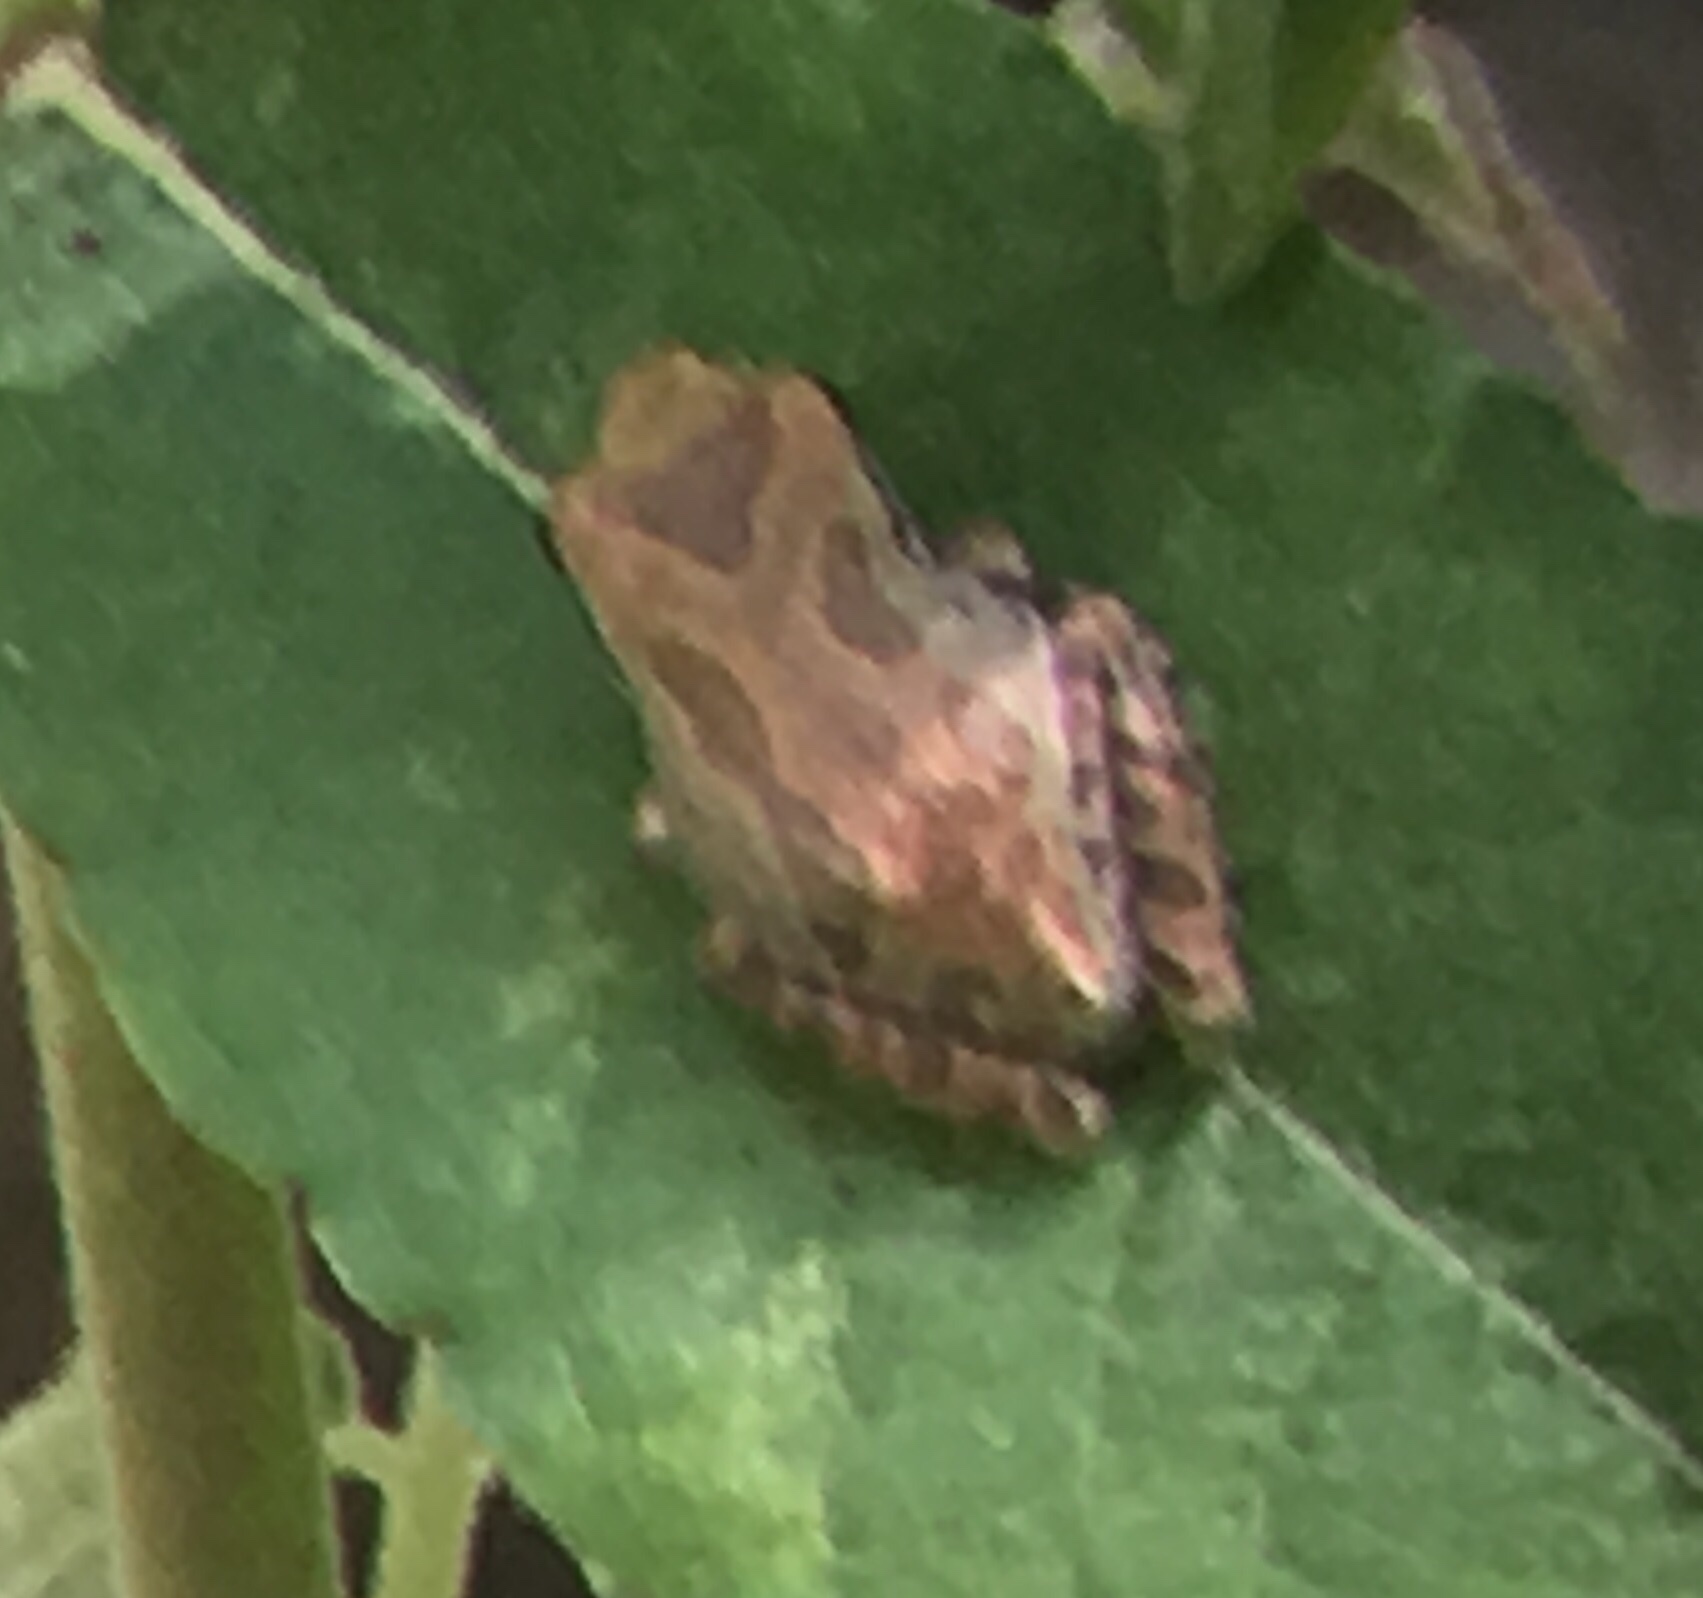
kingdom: Animalia
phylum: Chordata
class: Amphibia
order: Anura
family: Hylidae
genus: Pseudacris
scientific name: Pseudacris regilla
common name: Pacific chorus frog
